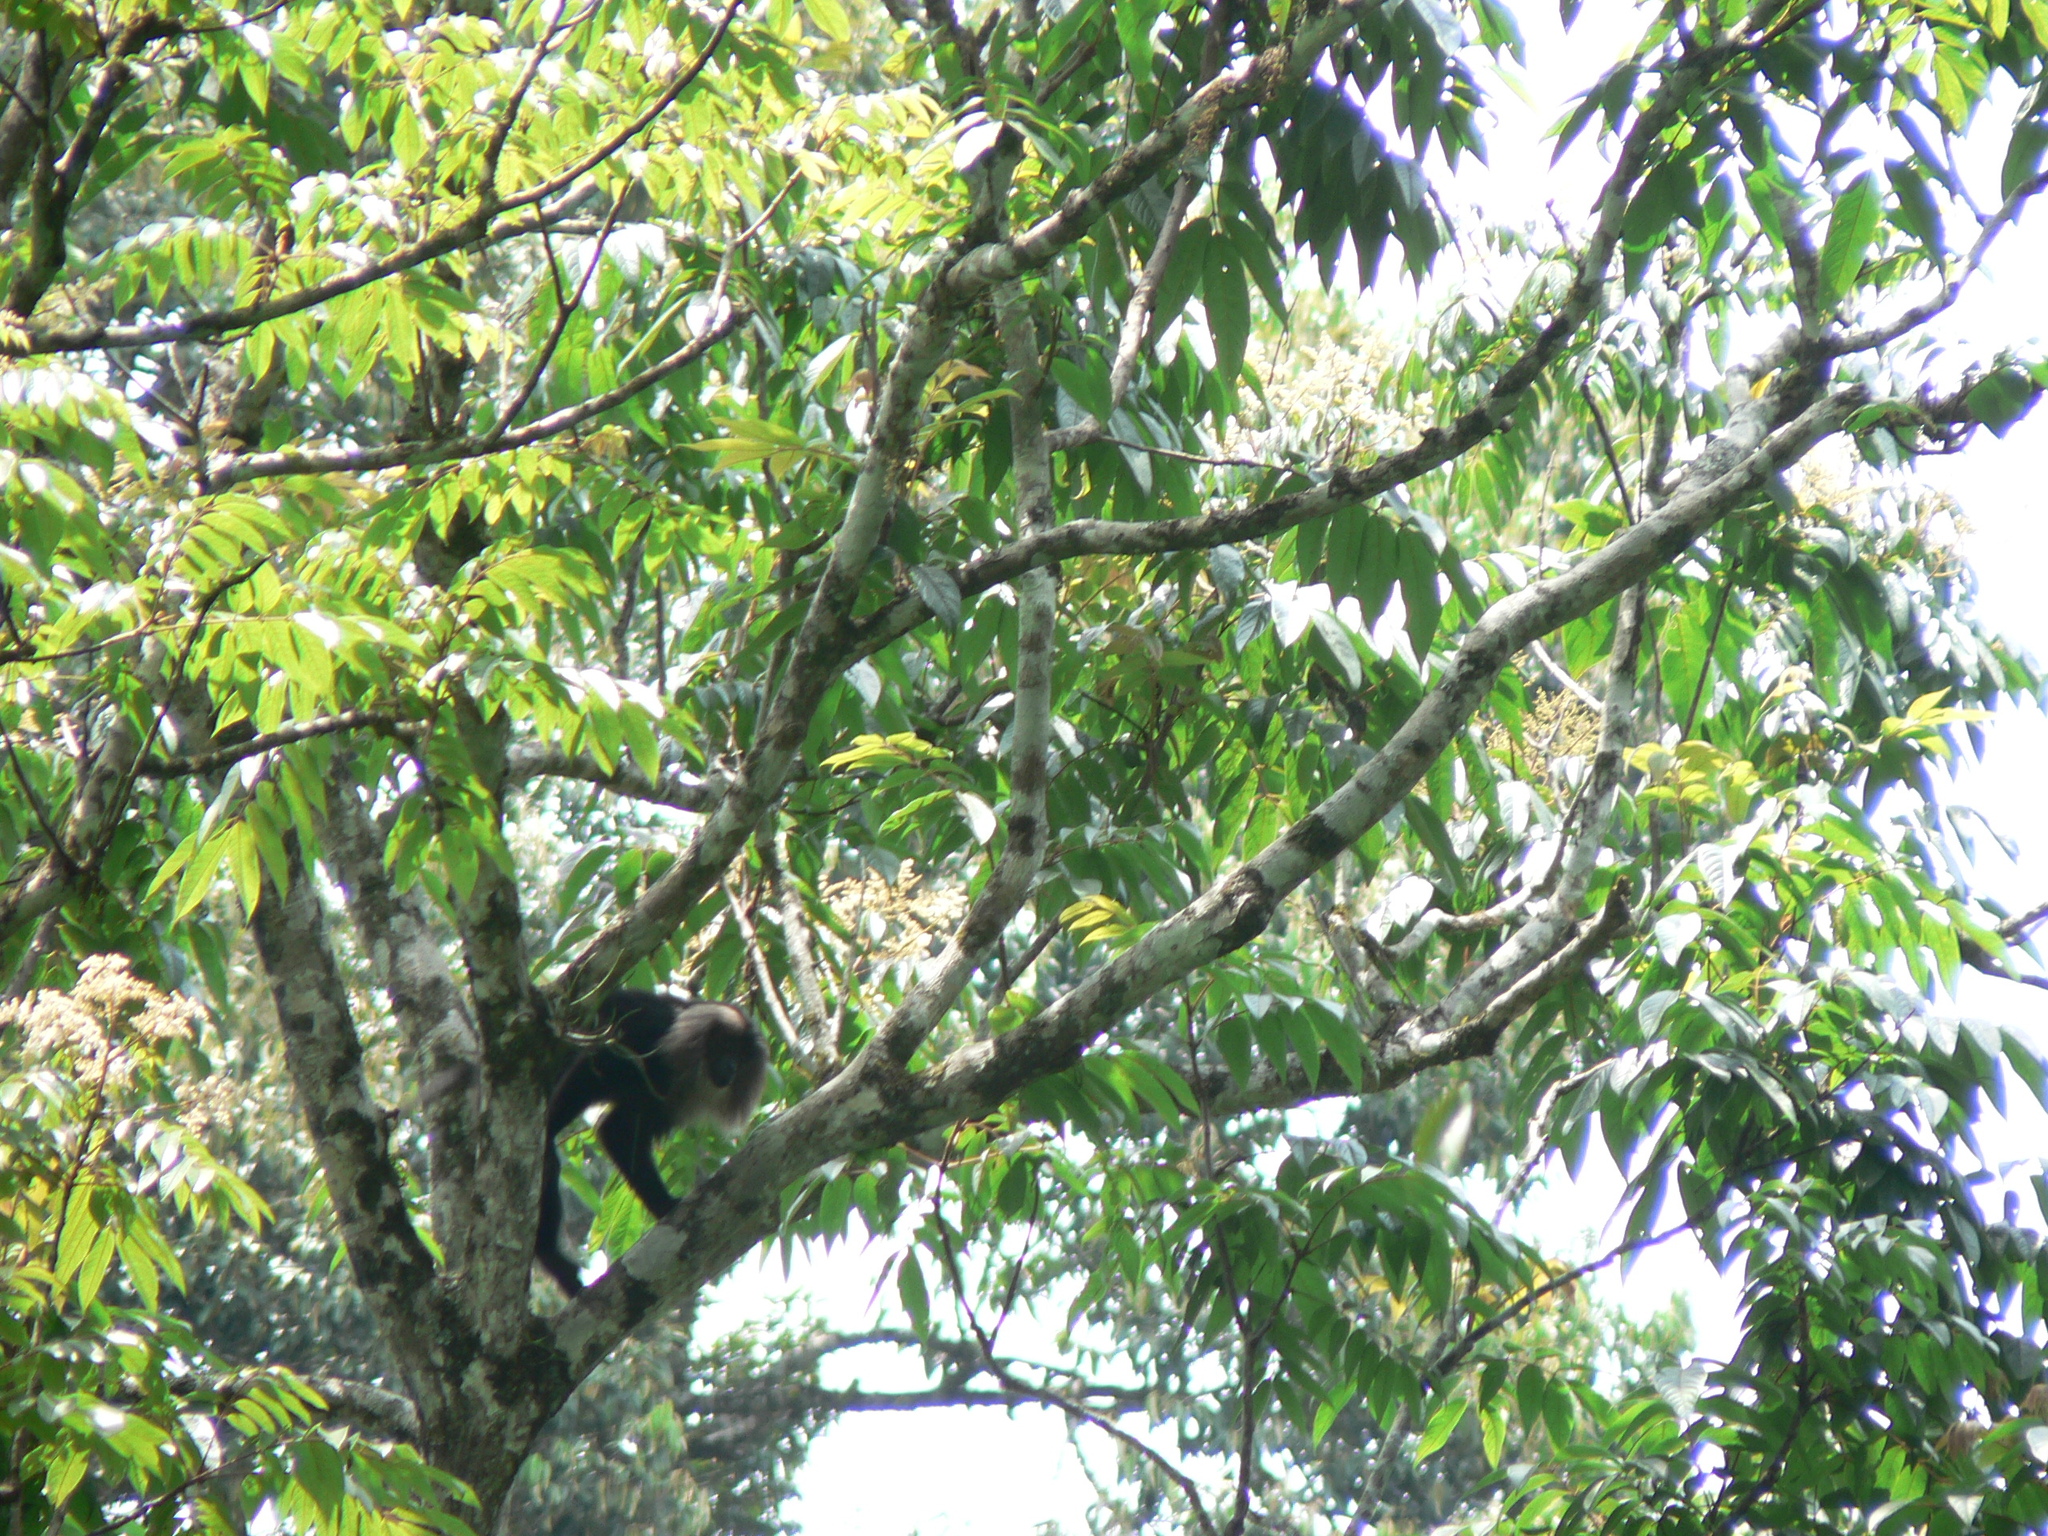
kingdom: Plantae
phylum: Tracheophyta
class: Magnoliopsida
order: Proteales
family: Sabiaceae
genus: Meliosma
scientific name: Meliosma pinnata
